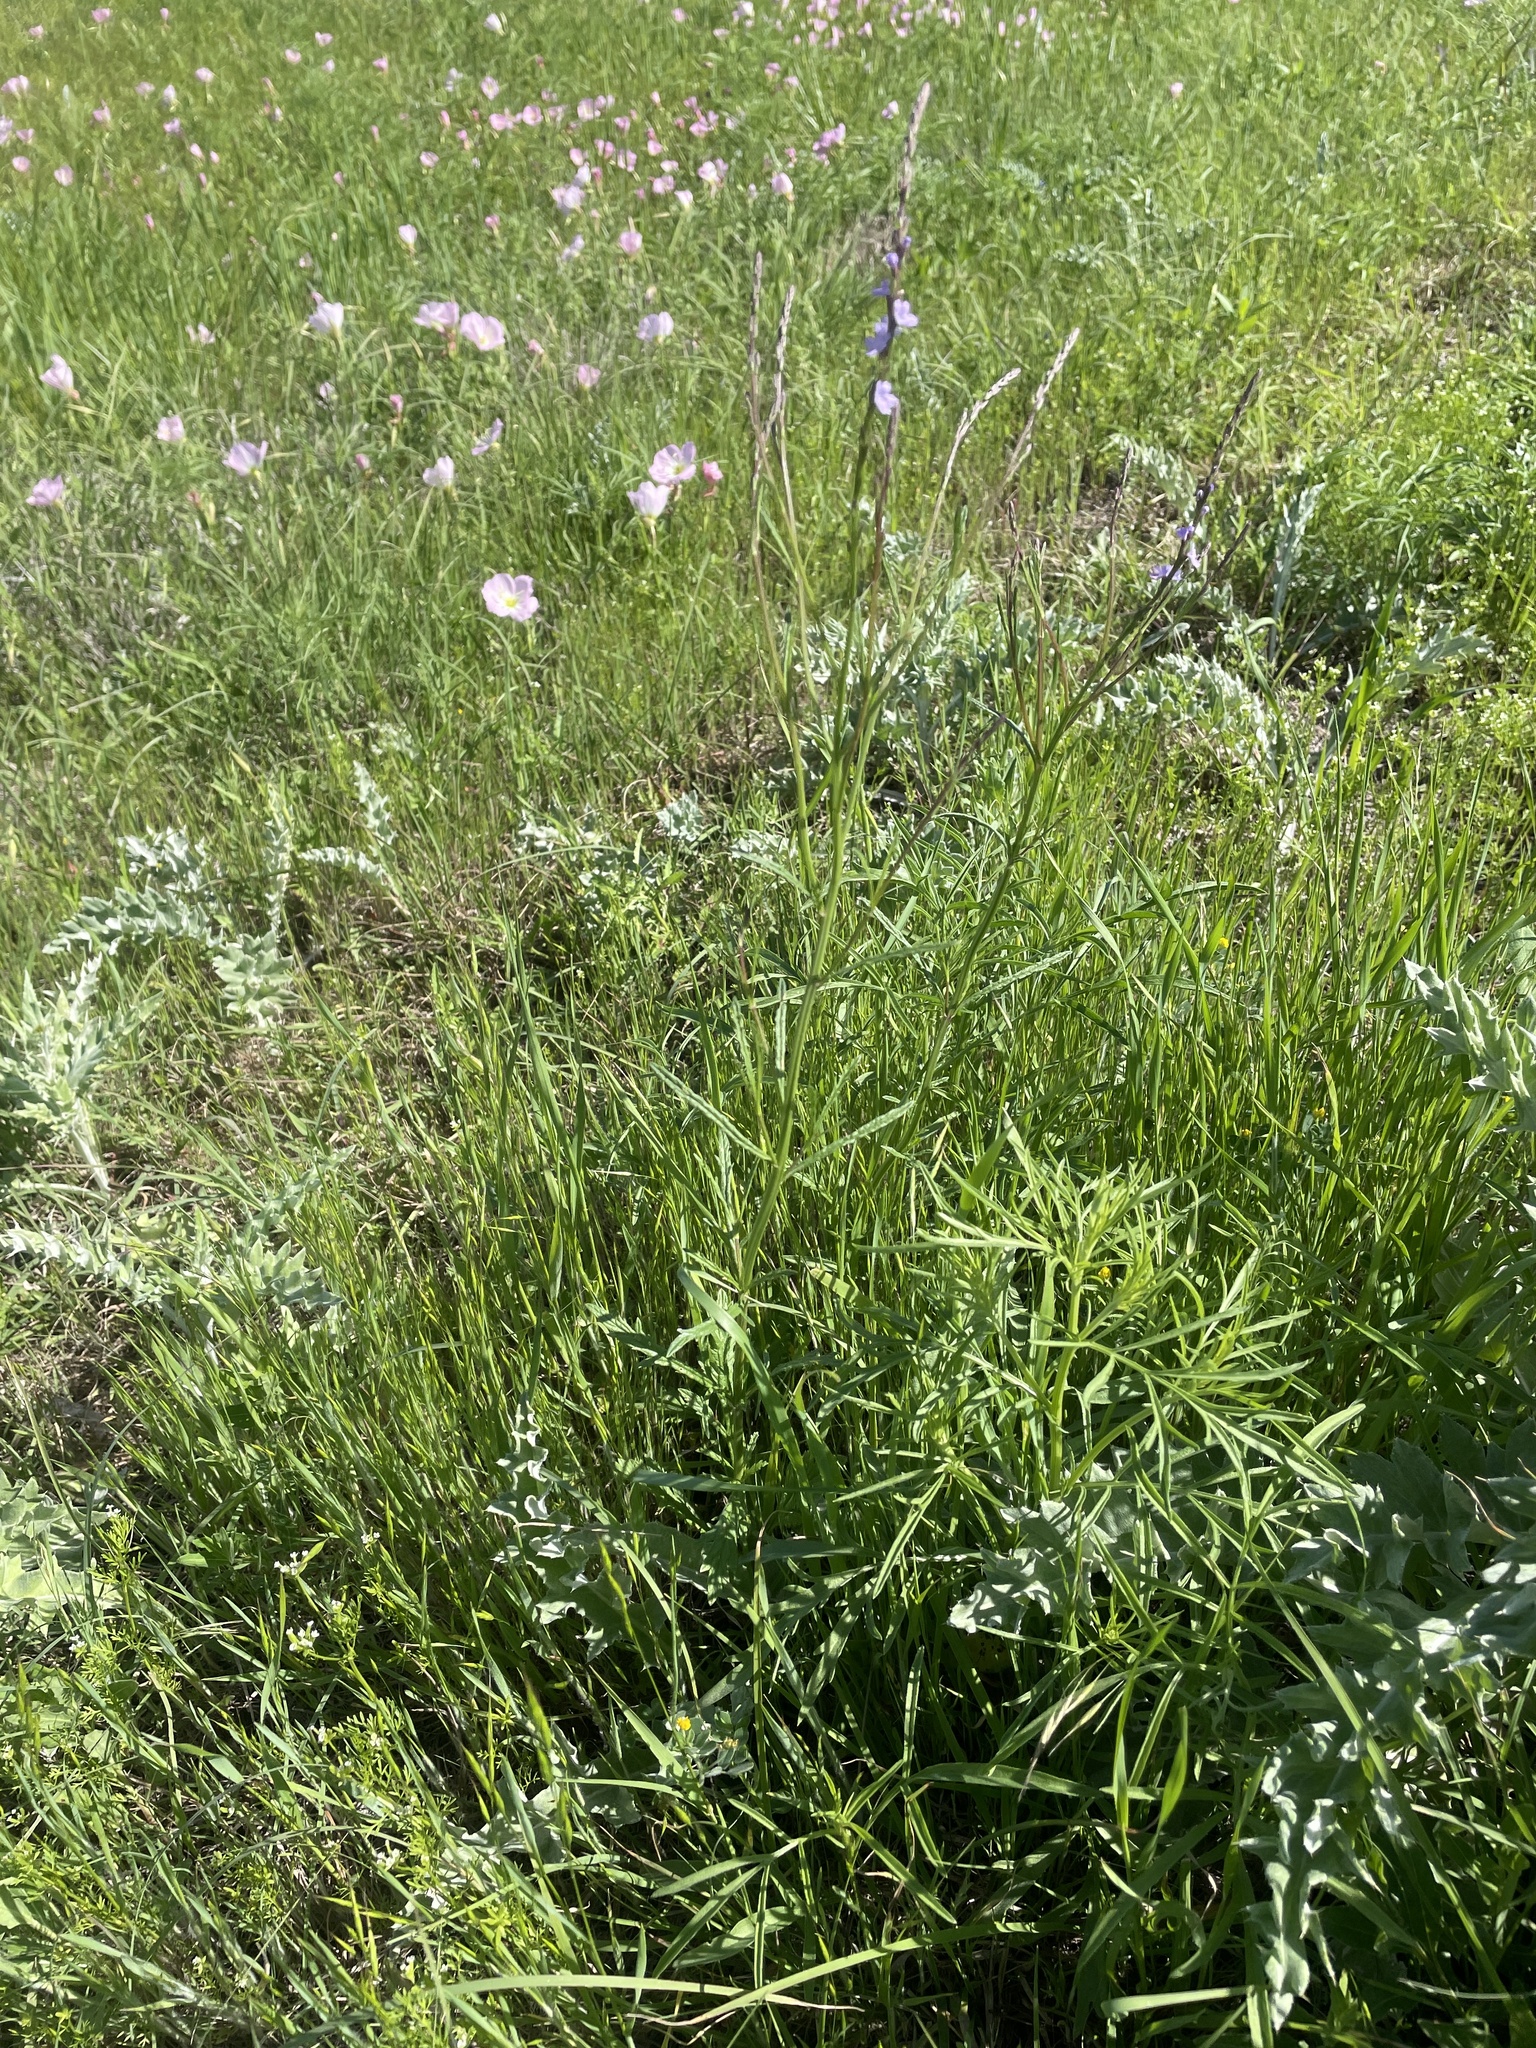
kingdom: Plantae
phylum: Tracheophyta
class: Magnoliopsida
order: Lamiales
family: Verbenaceae
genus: Verbena
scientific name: Verbena halei
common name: Texas vervain
